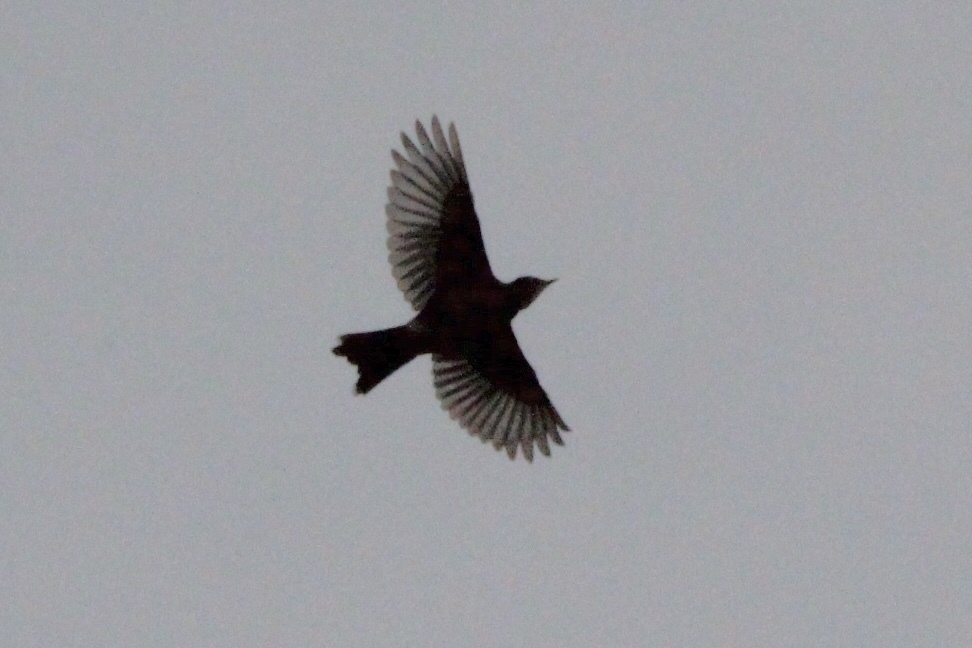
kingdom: Animalia
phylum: Chordata
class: Aves
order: Passeriformes
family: Turdidae
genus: Turdus
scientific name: Turdus migratorius
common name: American robin
